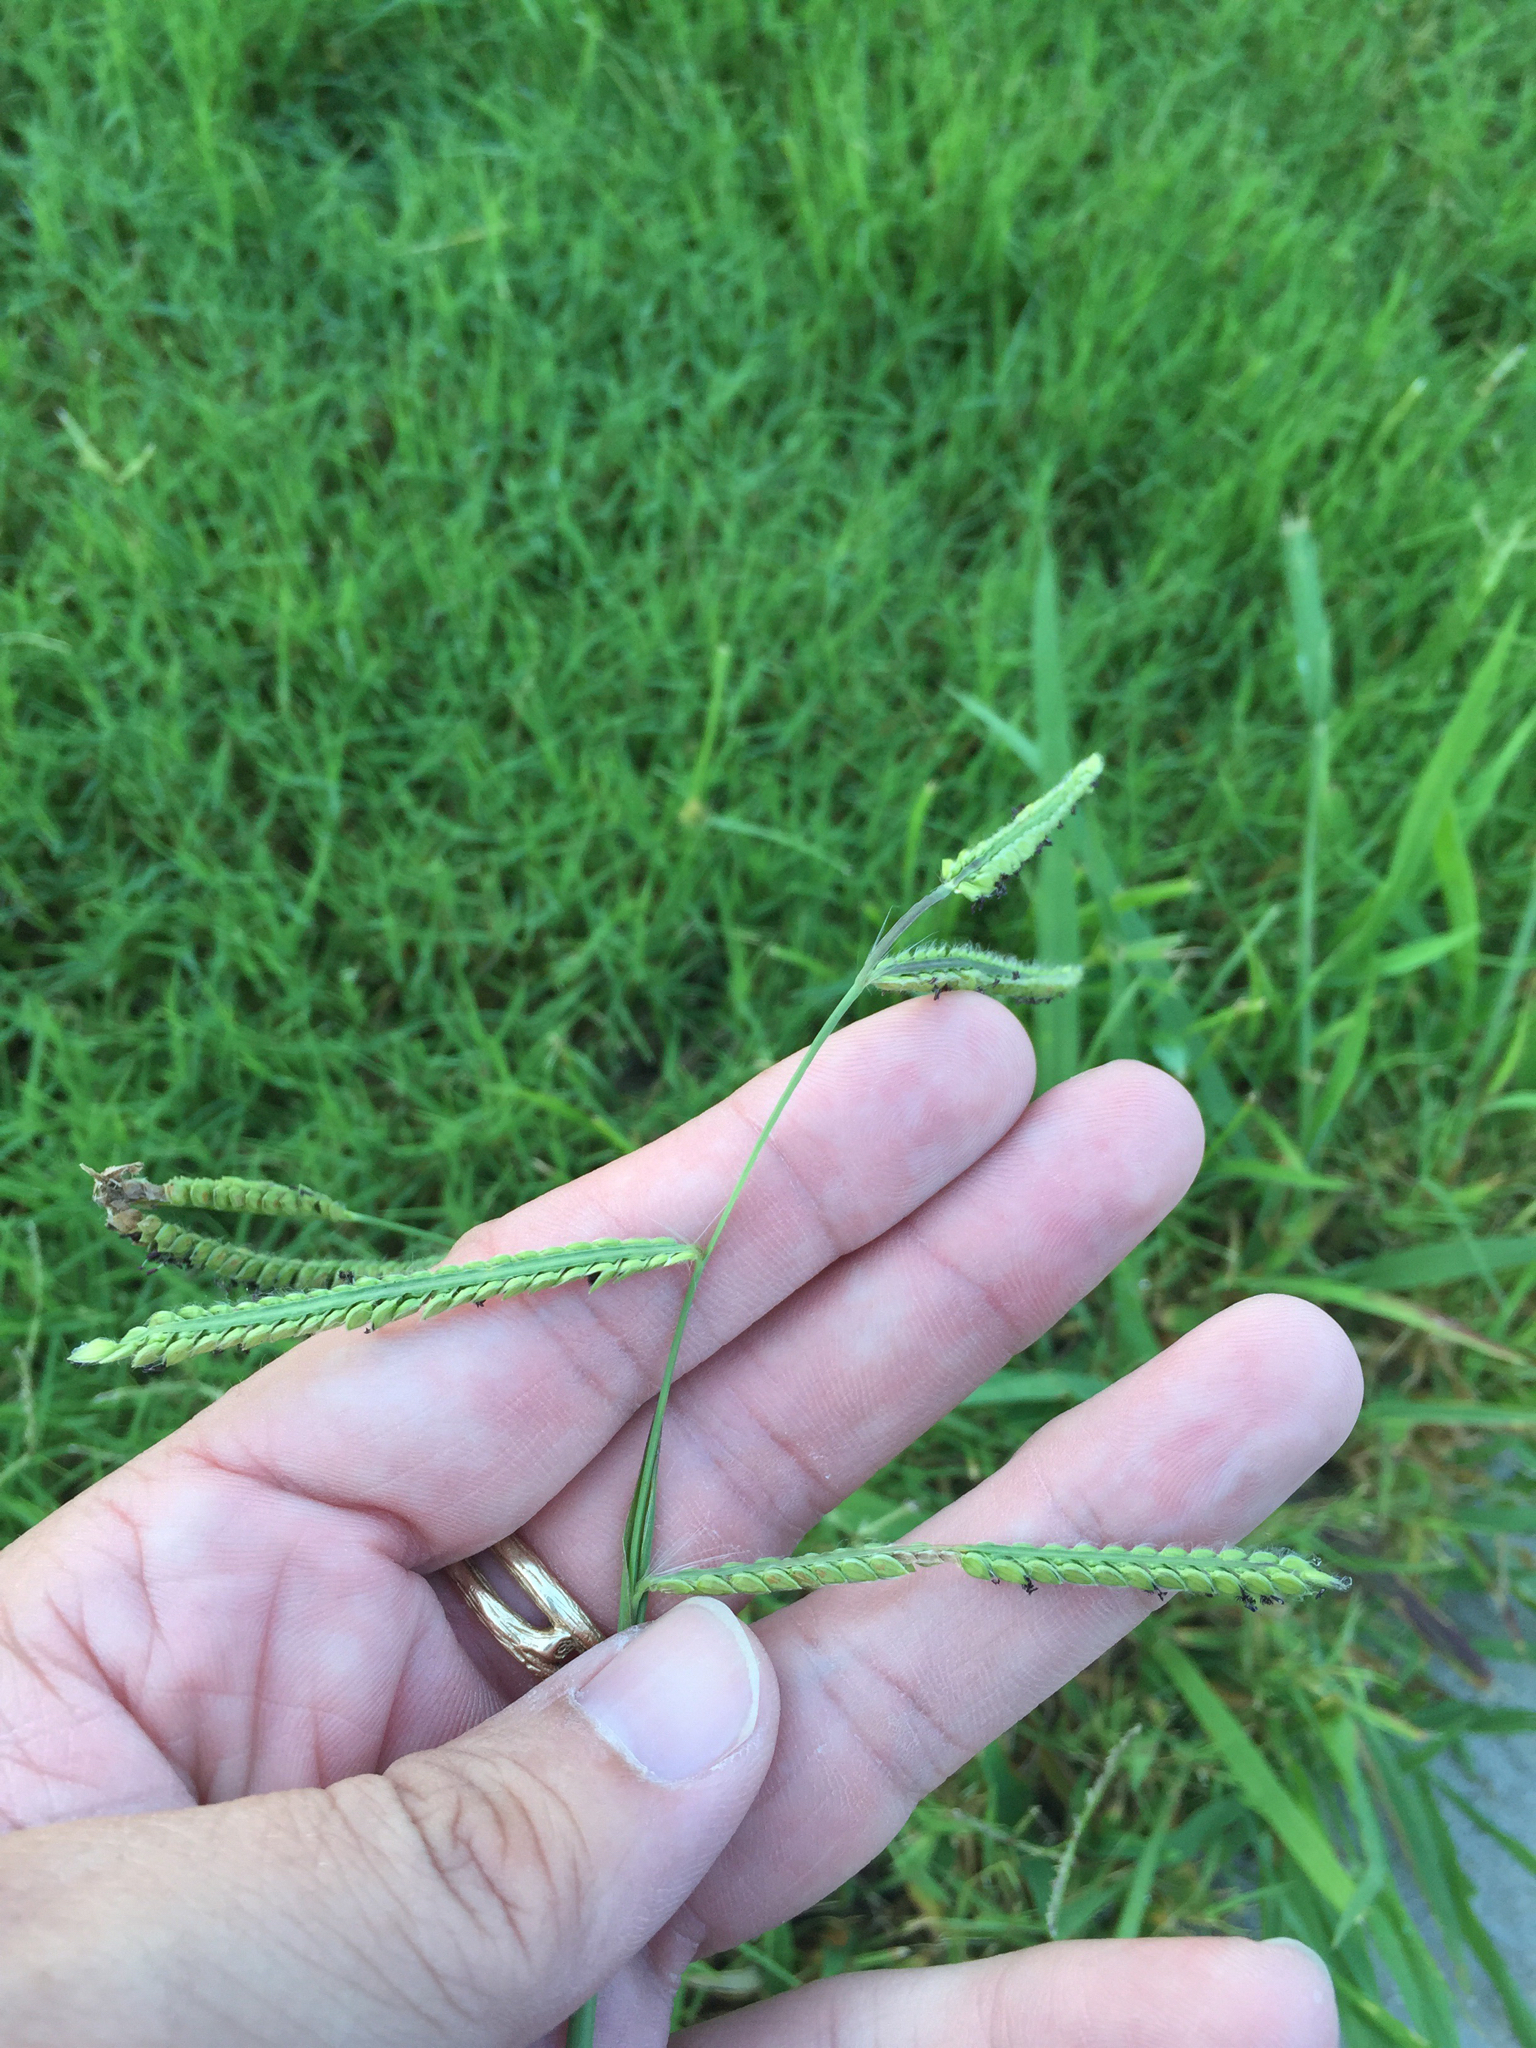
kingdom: Plantae
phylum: Tracheophyta
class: Liliopsida
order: Poales
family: Poaceae
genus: Paspalum
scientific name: Paspalum dilatatum
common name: Dallisgrass
